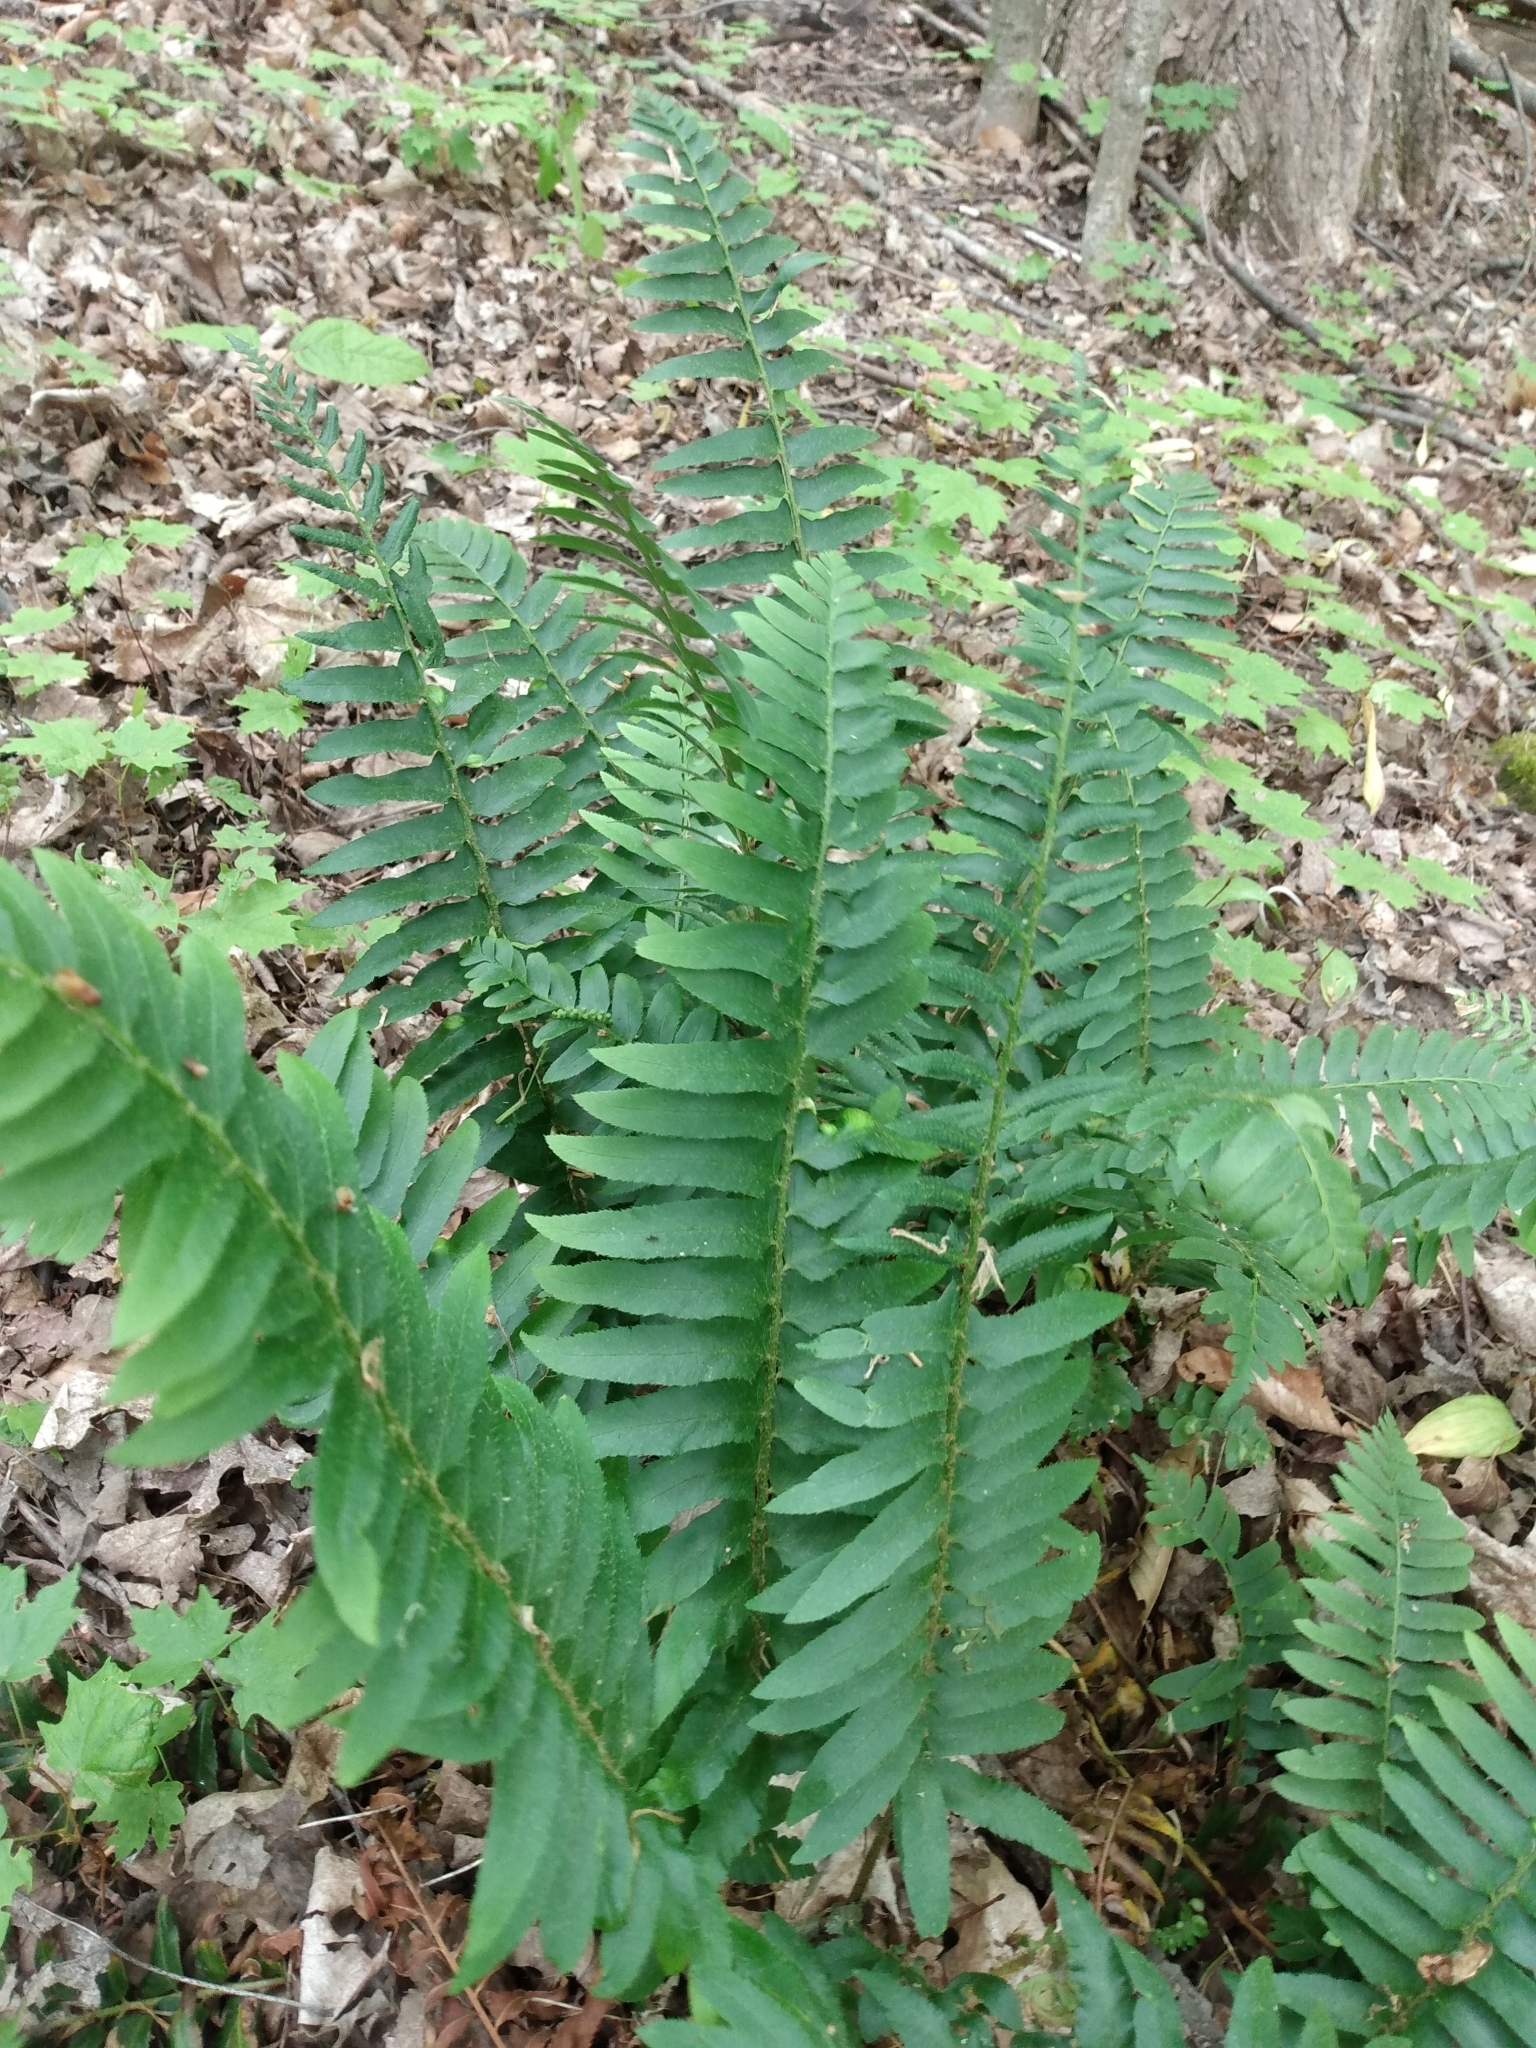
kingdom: Plantae
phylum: Tracheophyta
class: Polypodiopsida
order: Polypodiales
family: Dryopteridaceae
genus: Polystichum
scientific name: Polystichum acrostichoides
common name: Christmas fern
